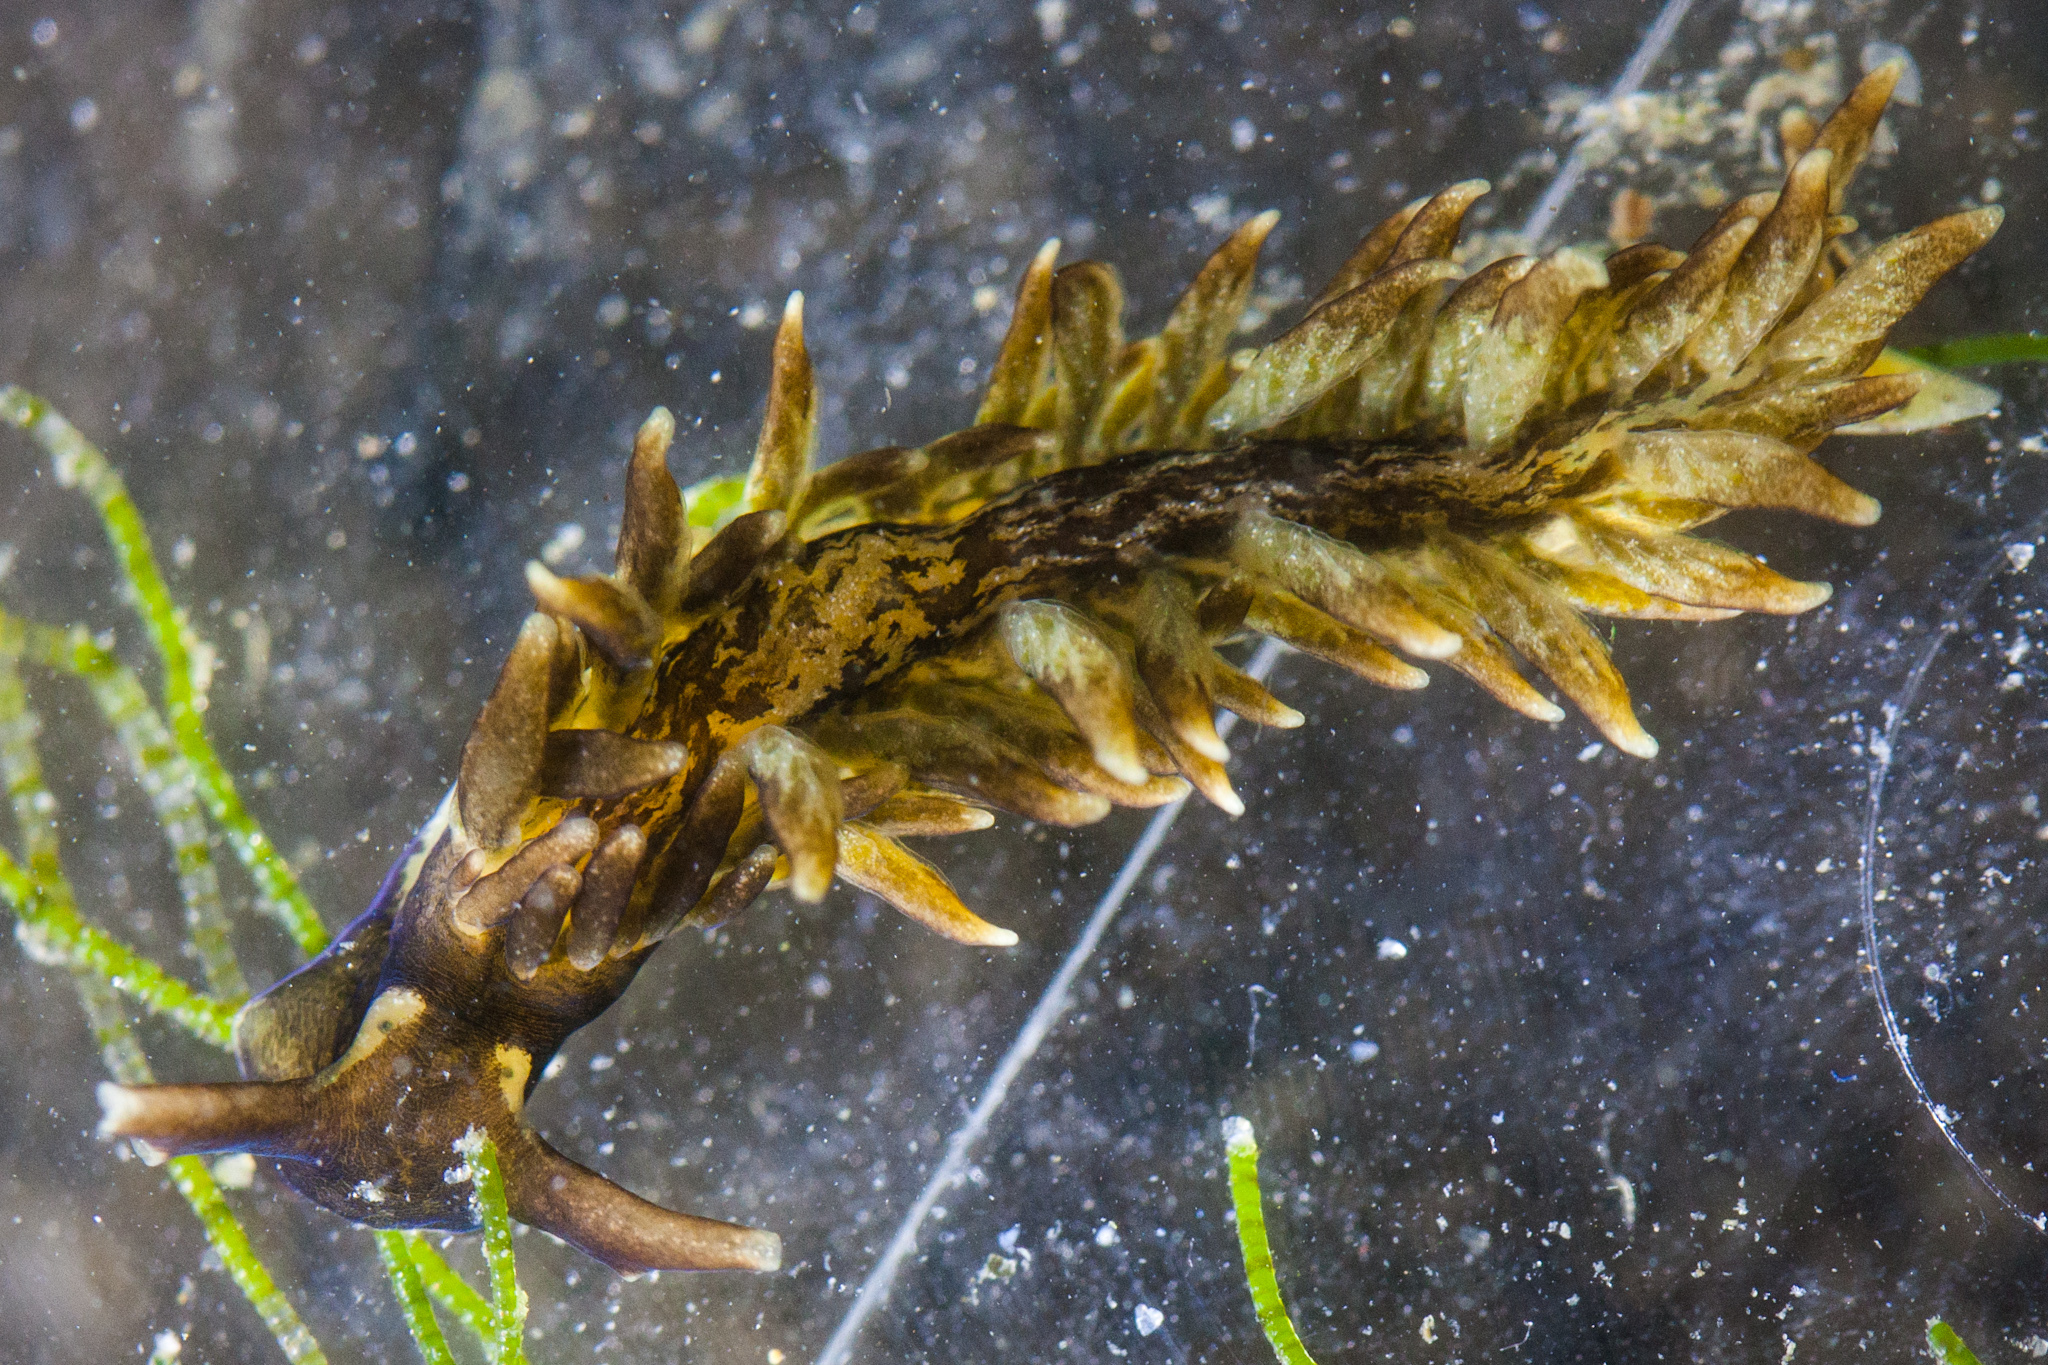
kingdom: Animalia
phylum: Mollusca
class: Gastropoda
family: Hermaeidae
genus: Aplysiopsis
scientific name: Aplysiopsis enteromorphae
